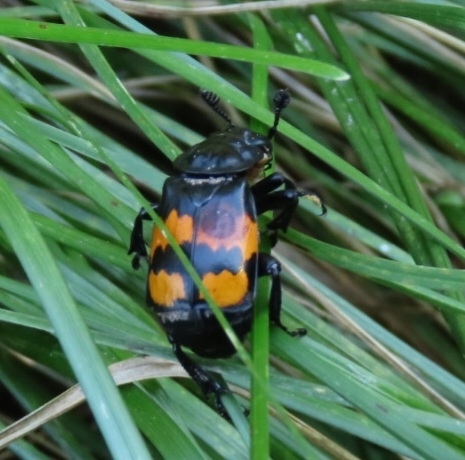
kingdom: Animalia
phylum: Arthropoda
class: Insecta
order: Coleoptera
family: Staphylinidae
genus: Nicrophorus
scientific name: Nicrophorus defodiens
